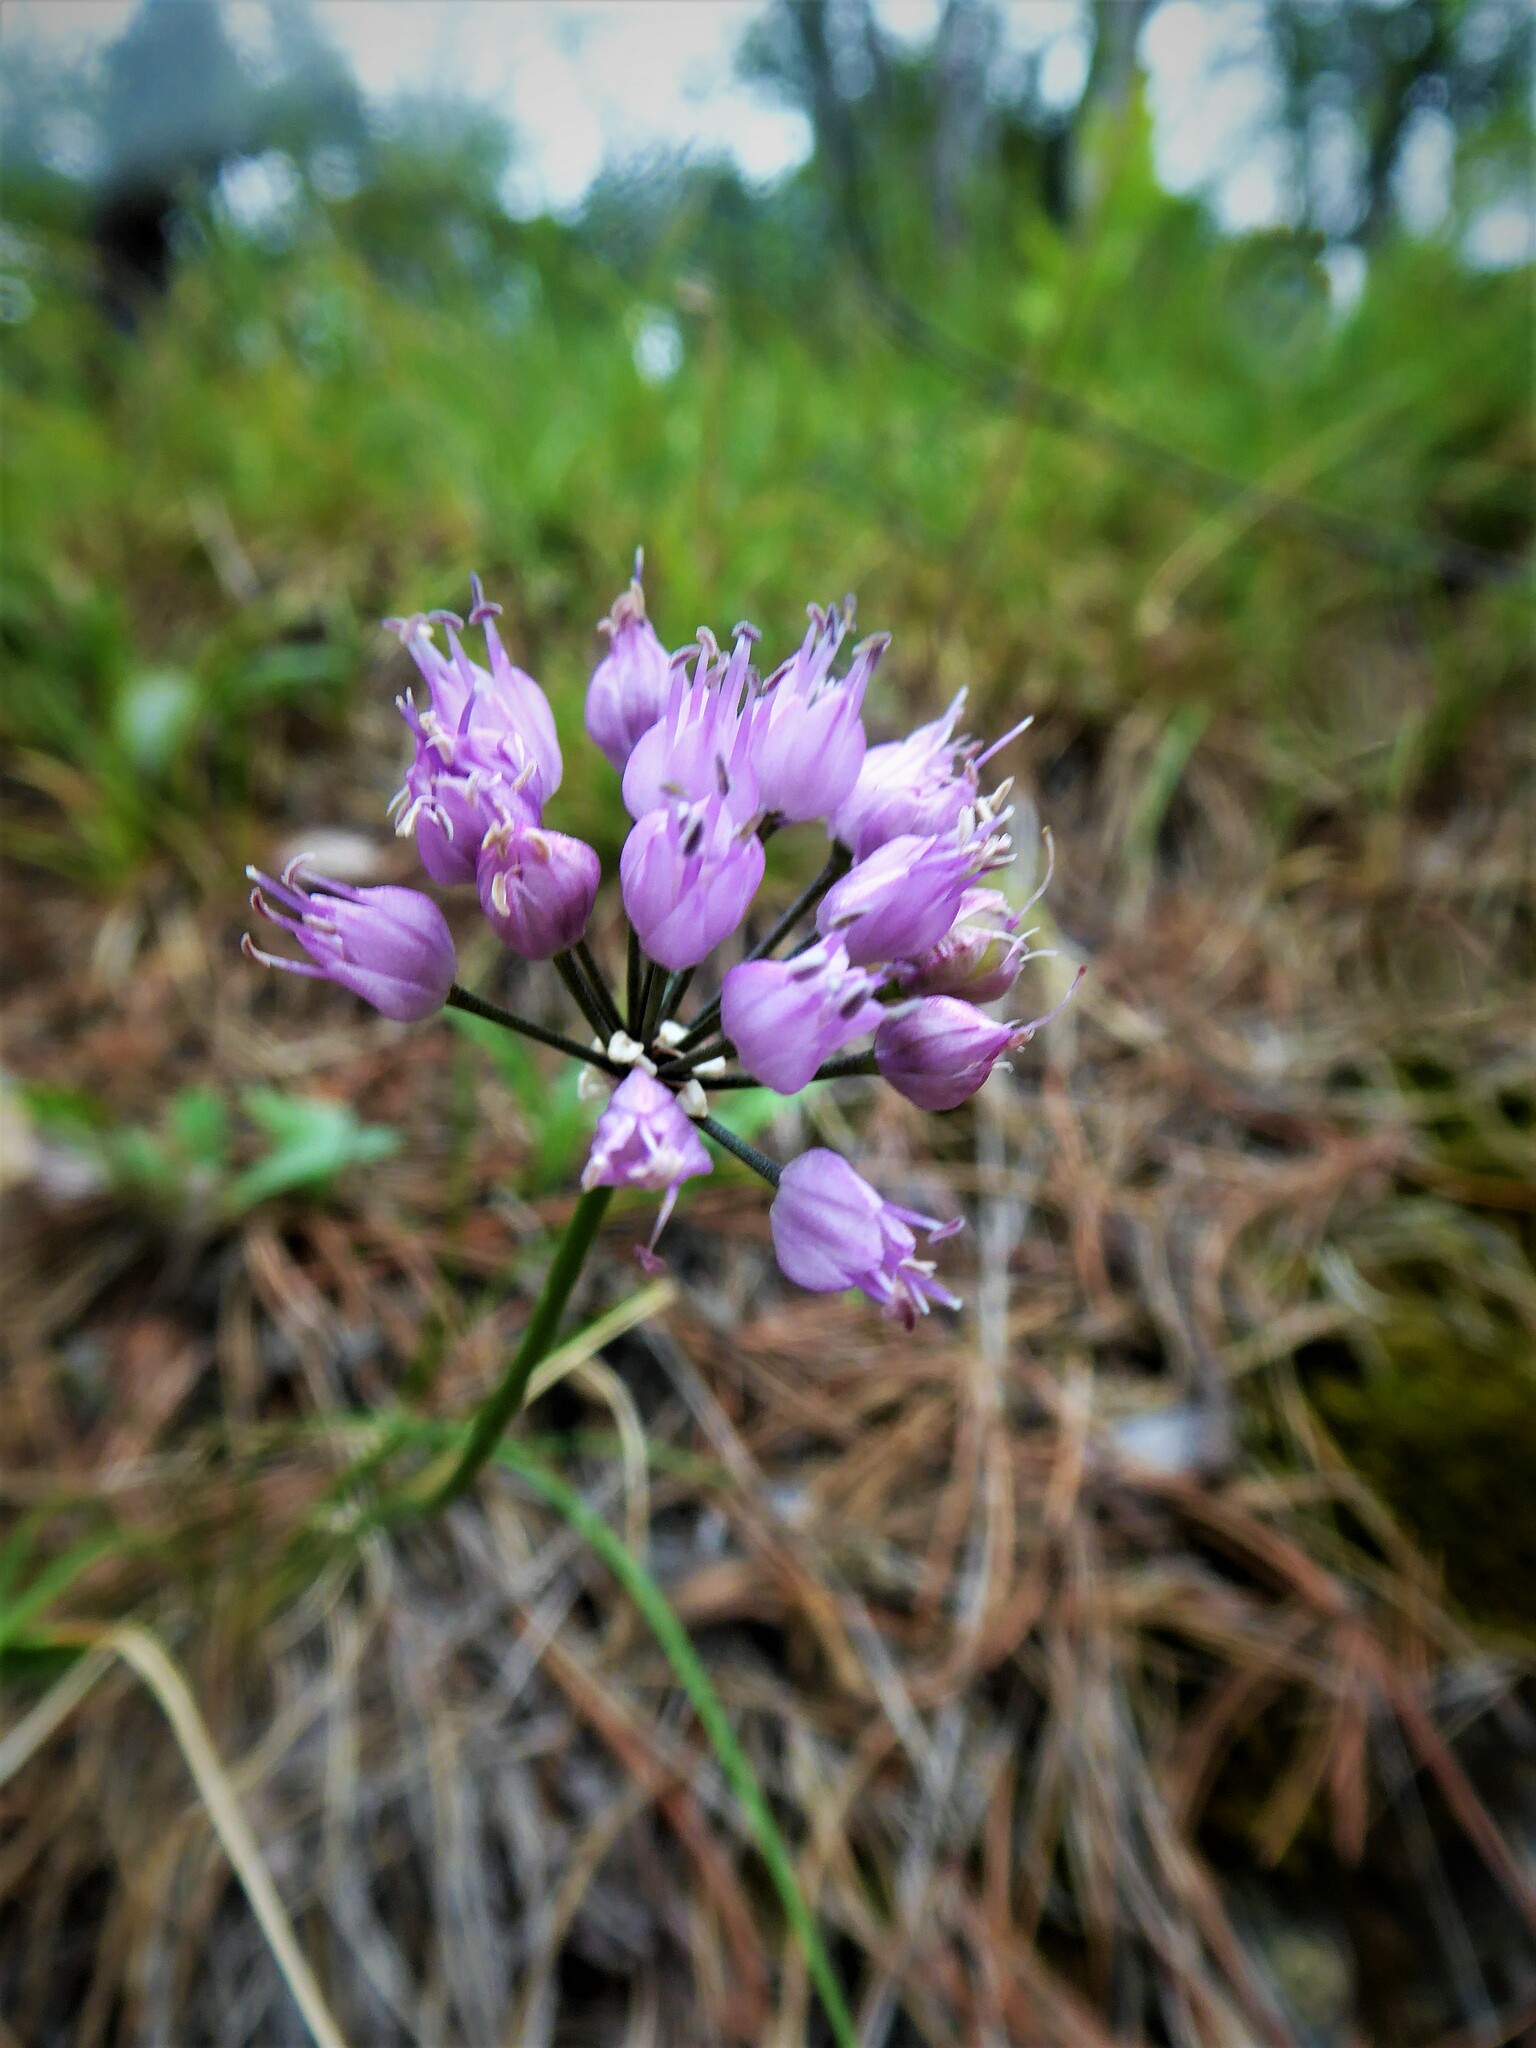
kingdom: Plantae
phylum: Tracheophyta
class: Liliopsida
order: Asparagales
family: Amaryllidaceae
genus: Allium
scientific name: Allium lusitanicum
